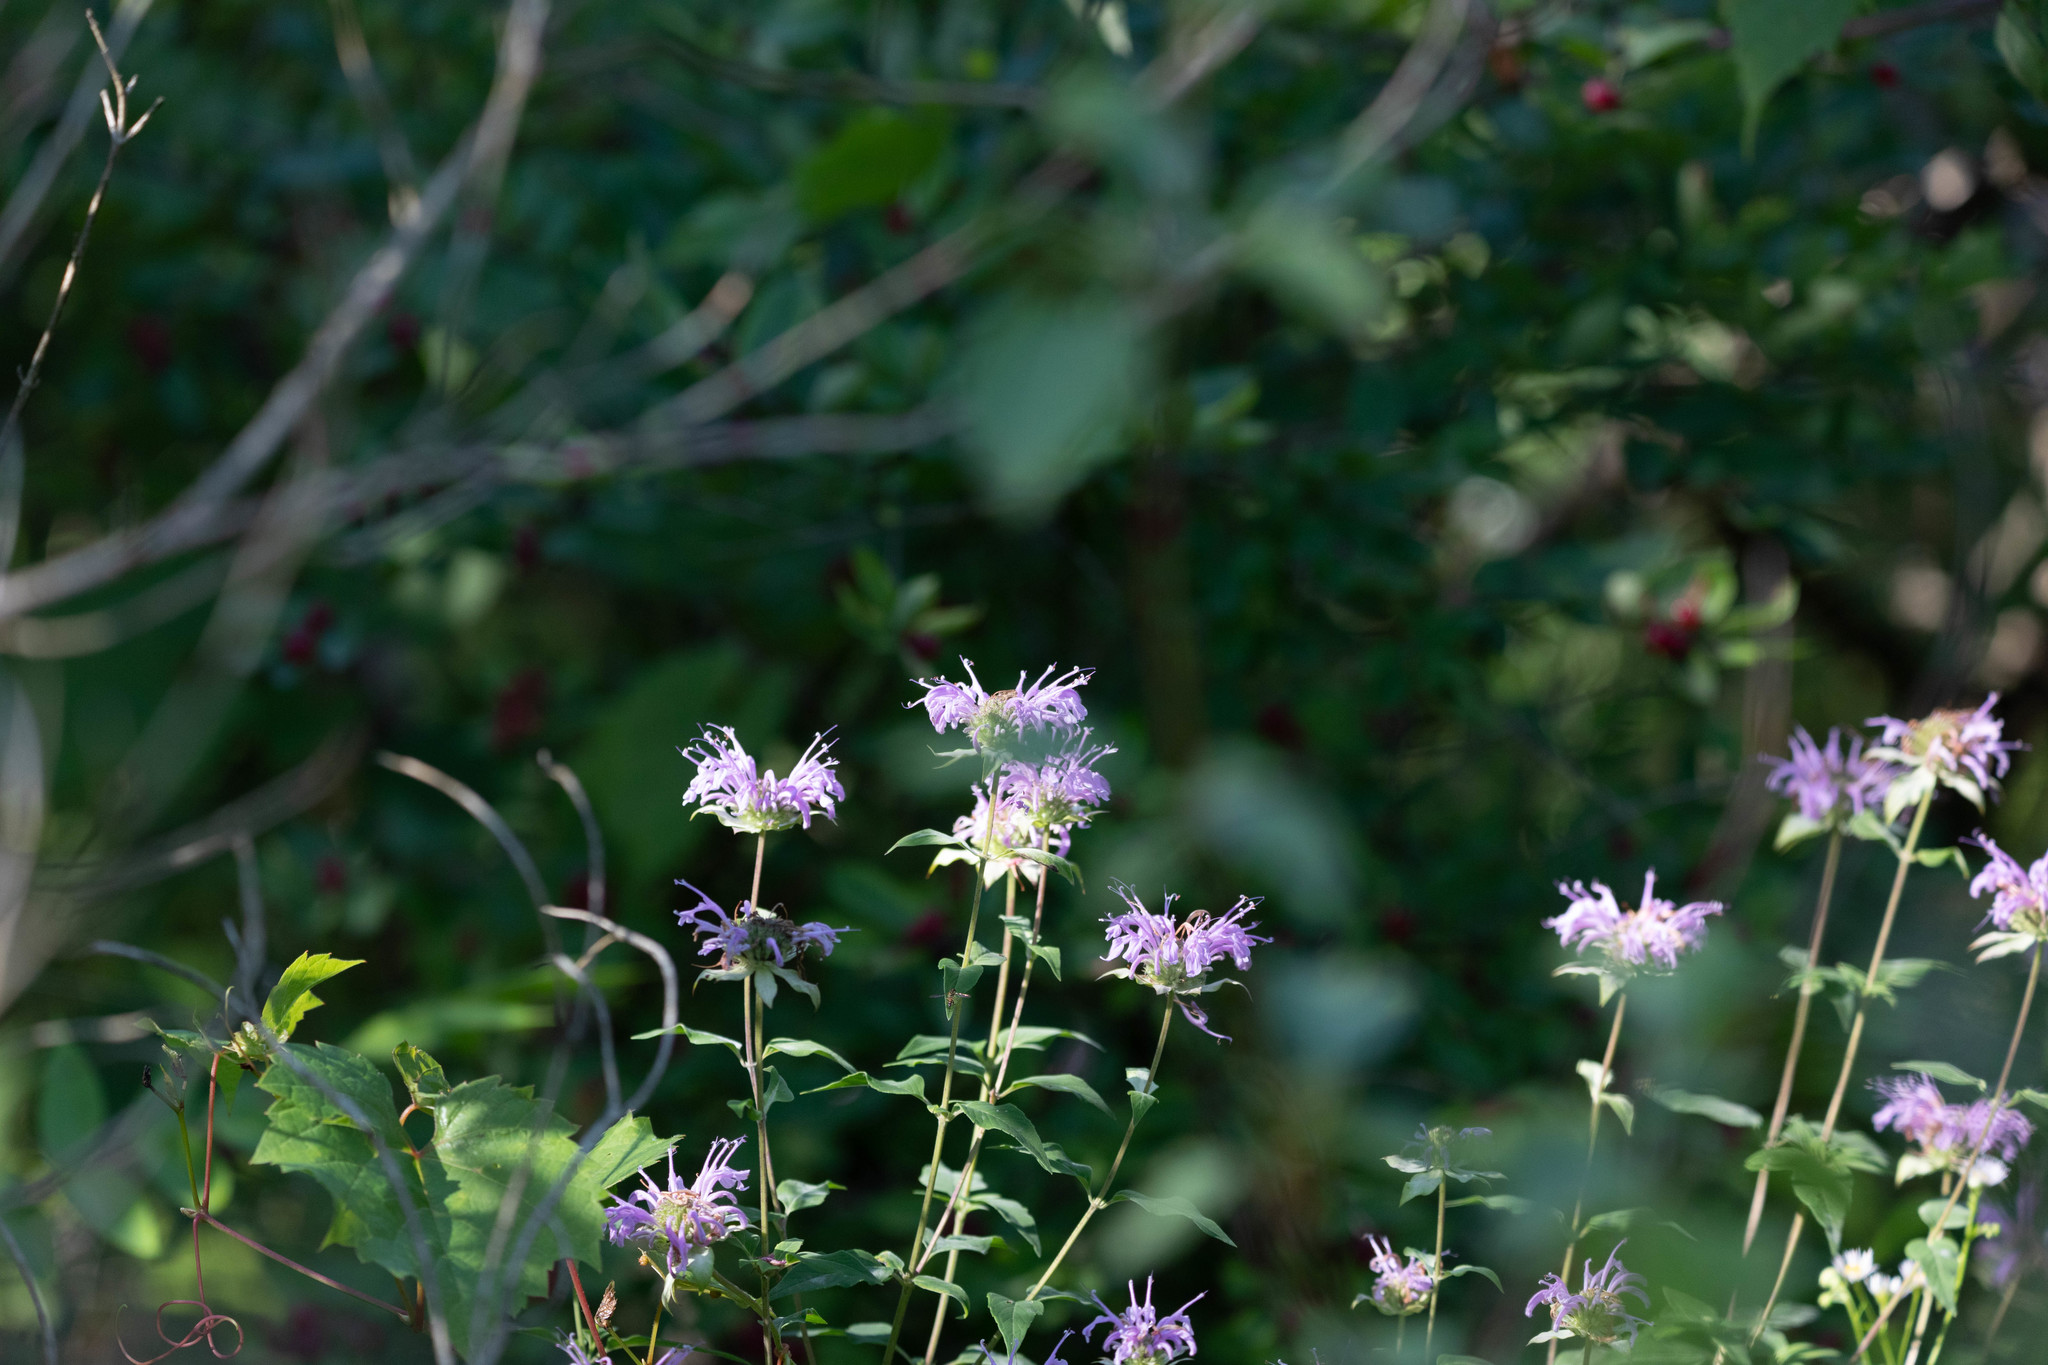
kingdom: Plantae
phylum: Tracheophyta
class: Magnoliopsida
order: Lamiales
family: Lamiaceae
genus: Monarda
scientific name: Monarda fistulosa
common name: Purple beebalm
